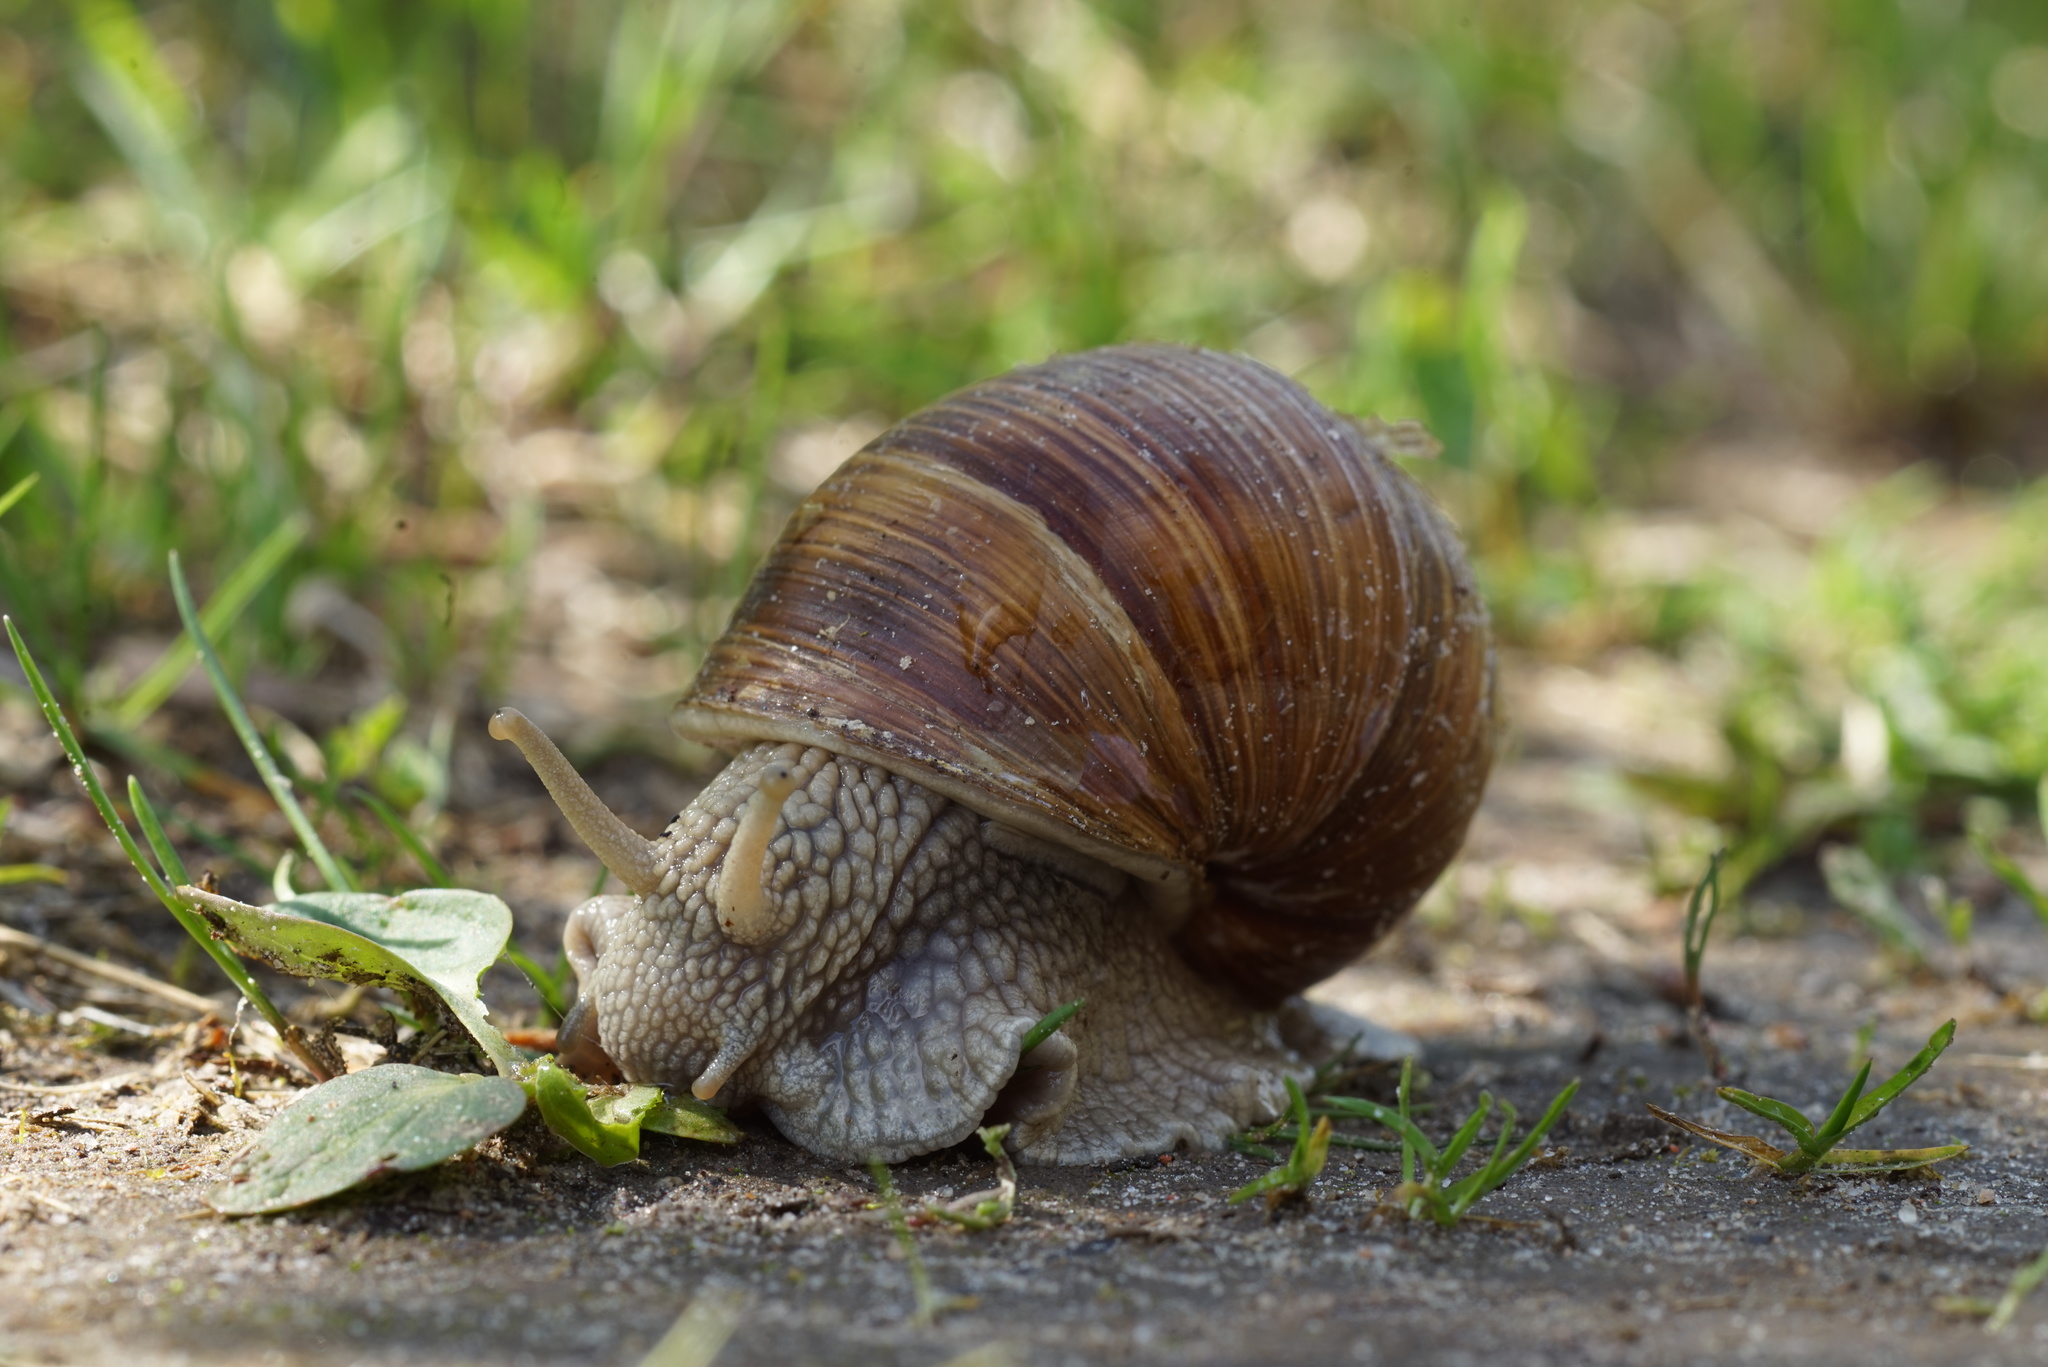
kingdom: Animalia
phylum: Mollusca
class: Gastropoda
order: Stylommatophora
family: Helicidae
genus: Helix
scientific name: Helix pomatia
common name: Roman snail
